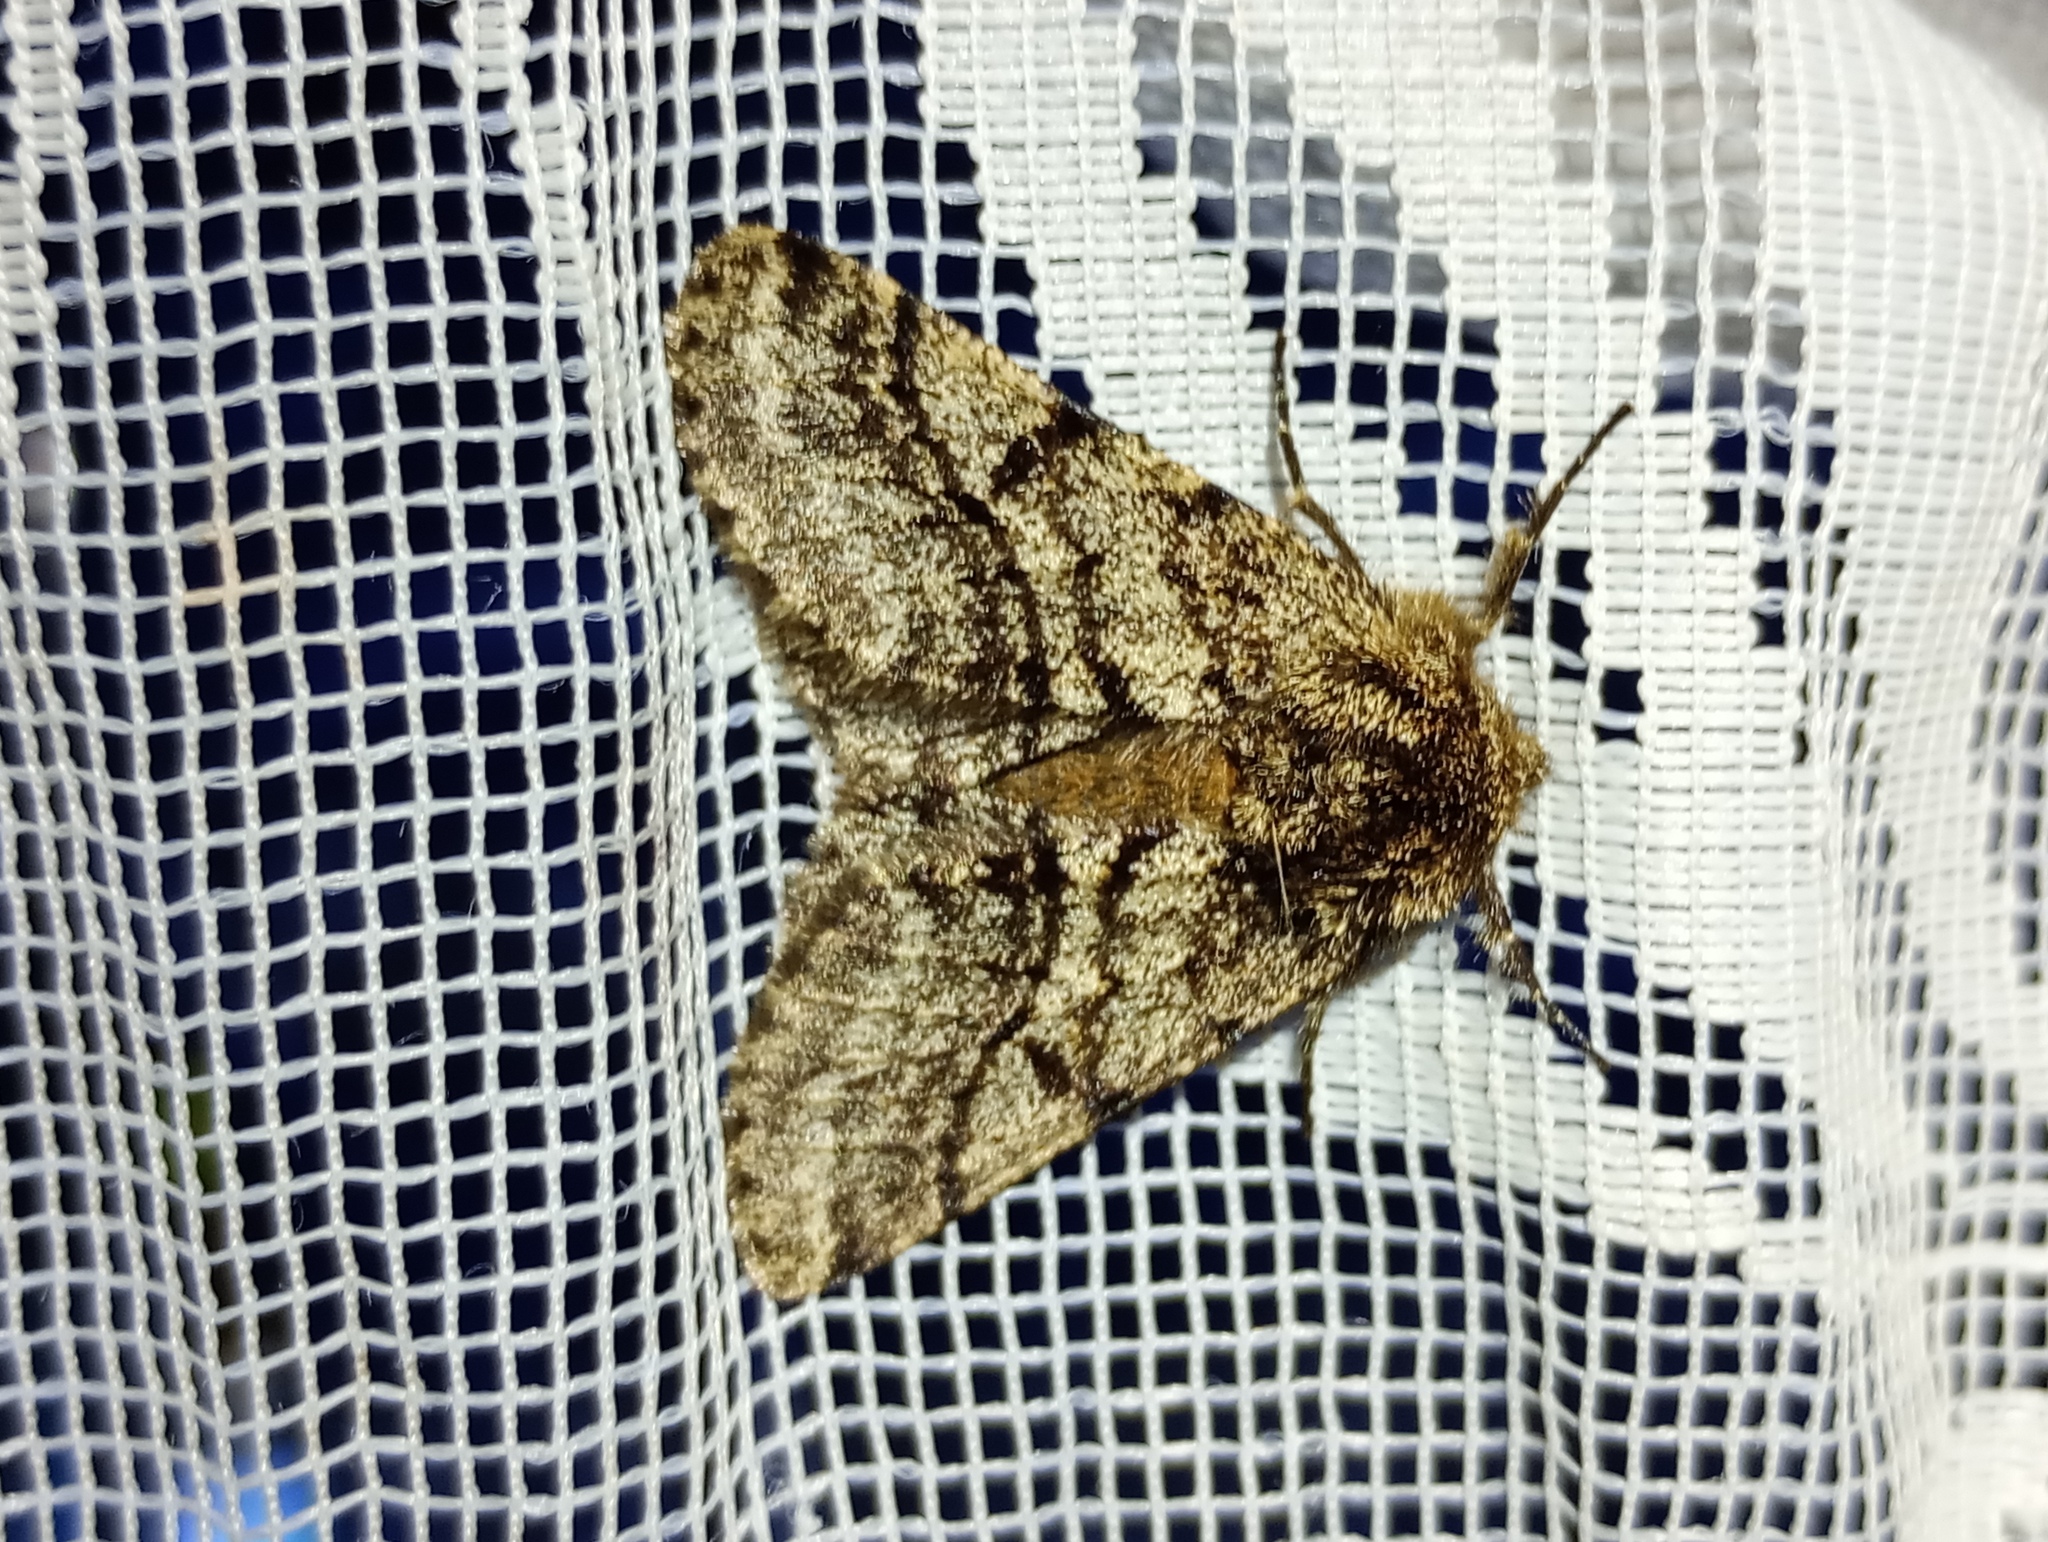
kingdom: Animalia
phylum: Arthropoda
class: Insecta
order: Lepidoptera
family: Geometridae
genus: Lycia
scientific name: Lycia hirtaria
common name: Brindled beauty
